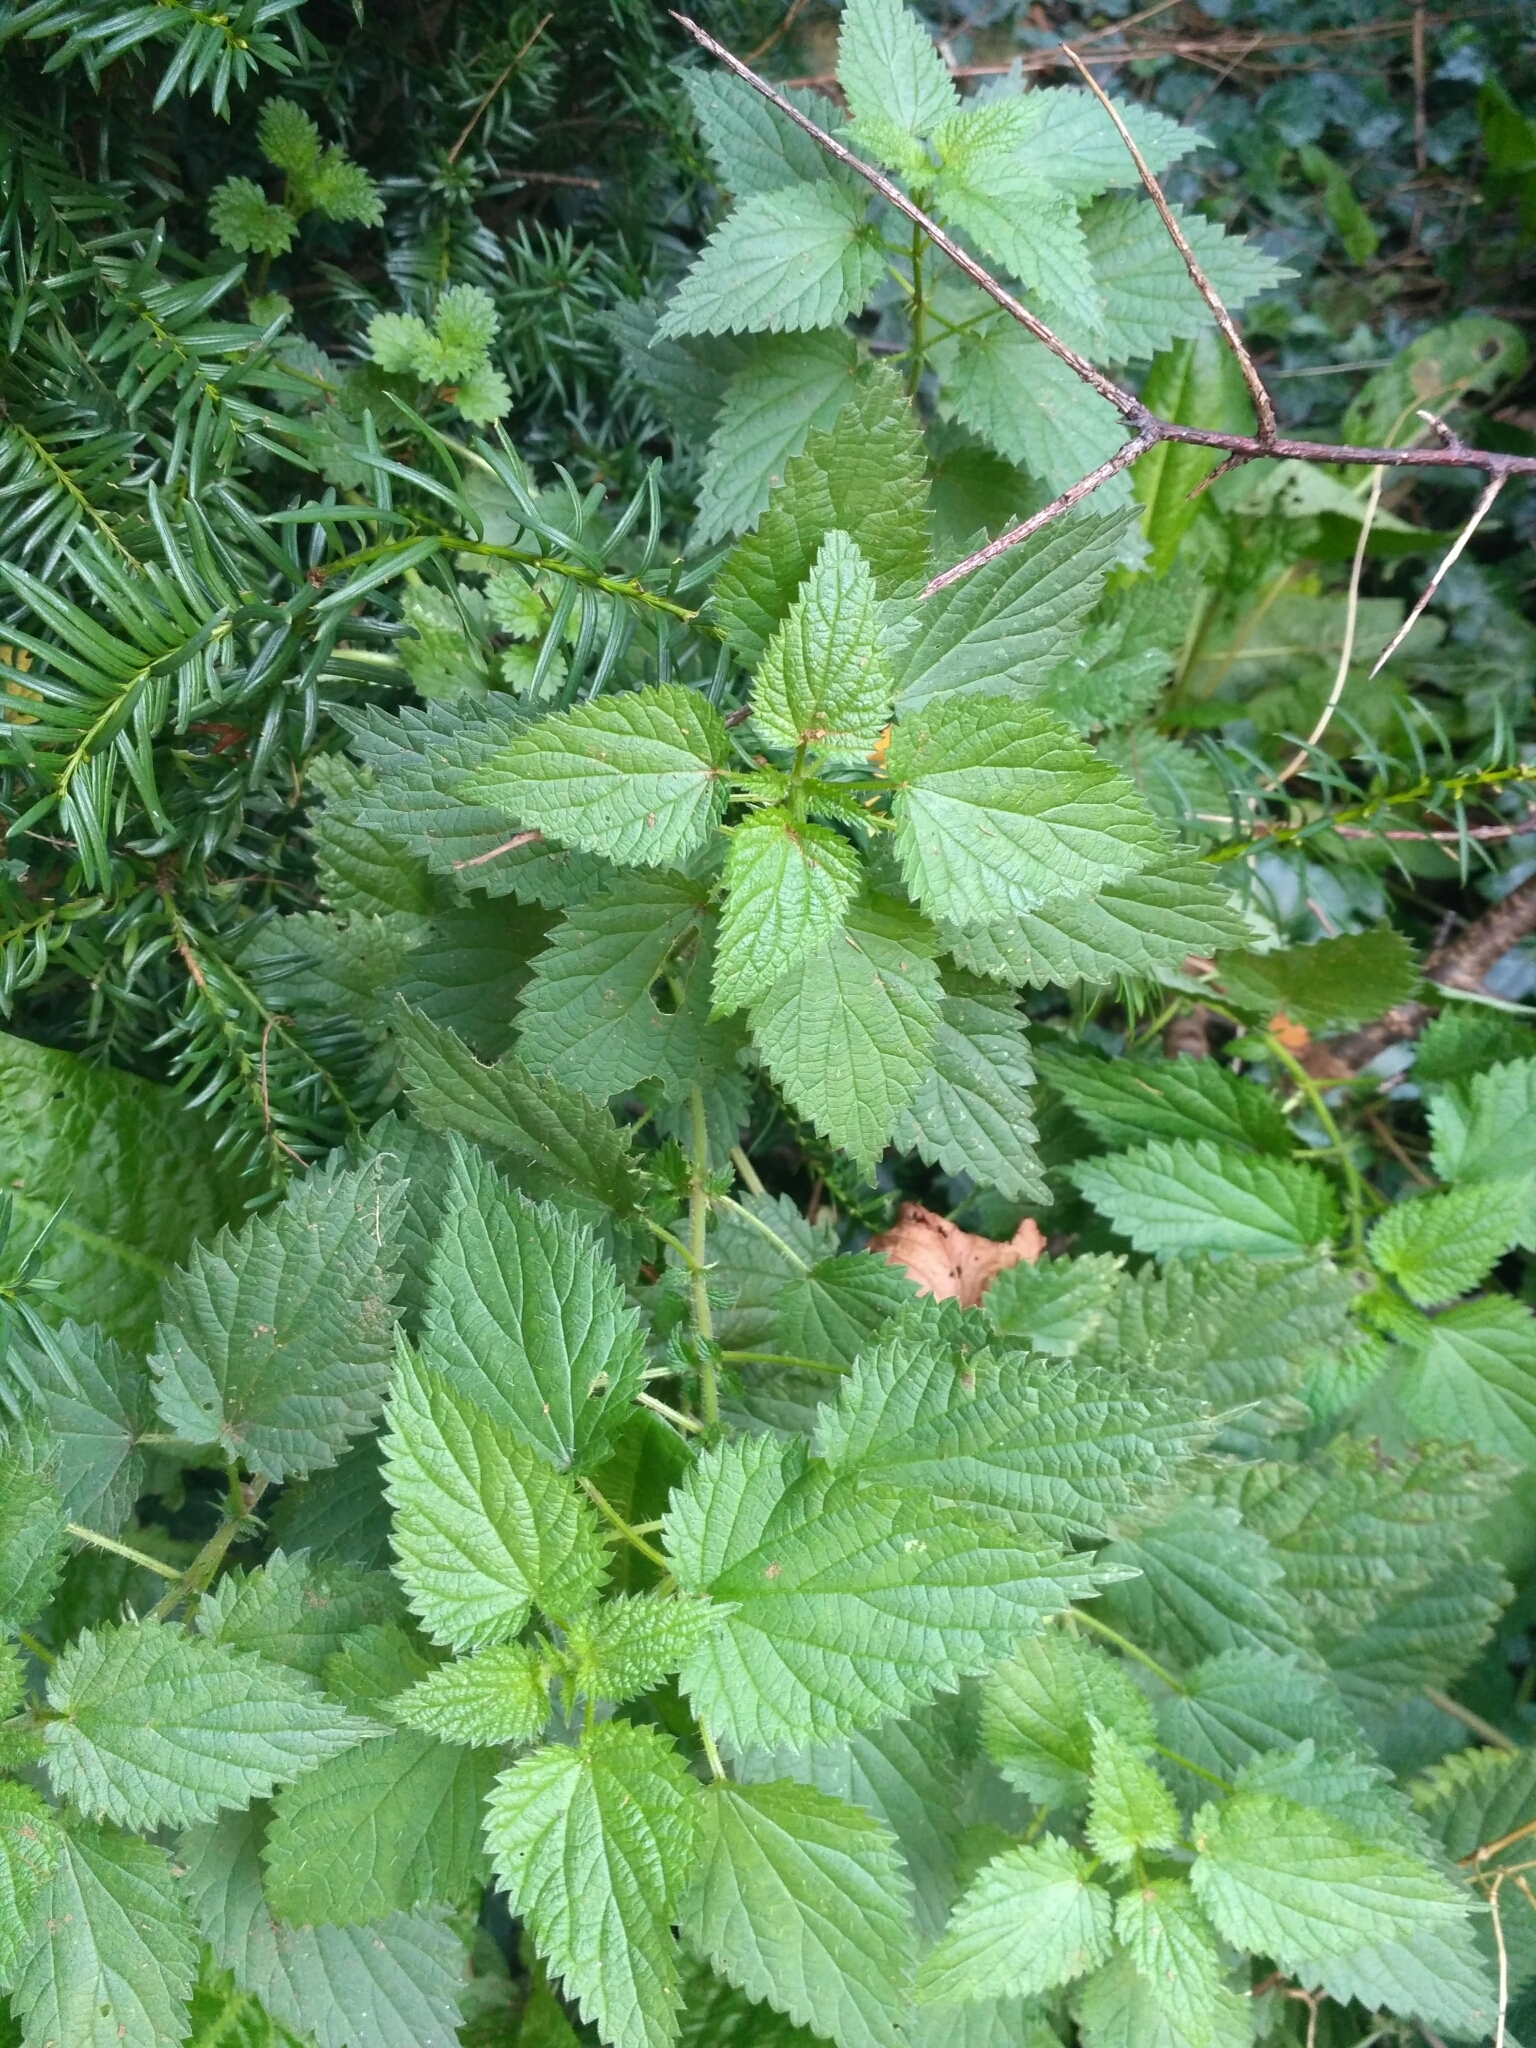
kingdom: Plantae
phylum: Tracheophyta
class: Magnoliopsida
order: Rosales
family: Urticaceae
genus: Urtica
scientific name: Urtica dioica
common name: Common nettle
